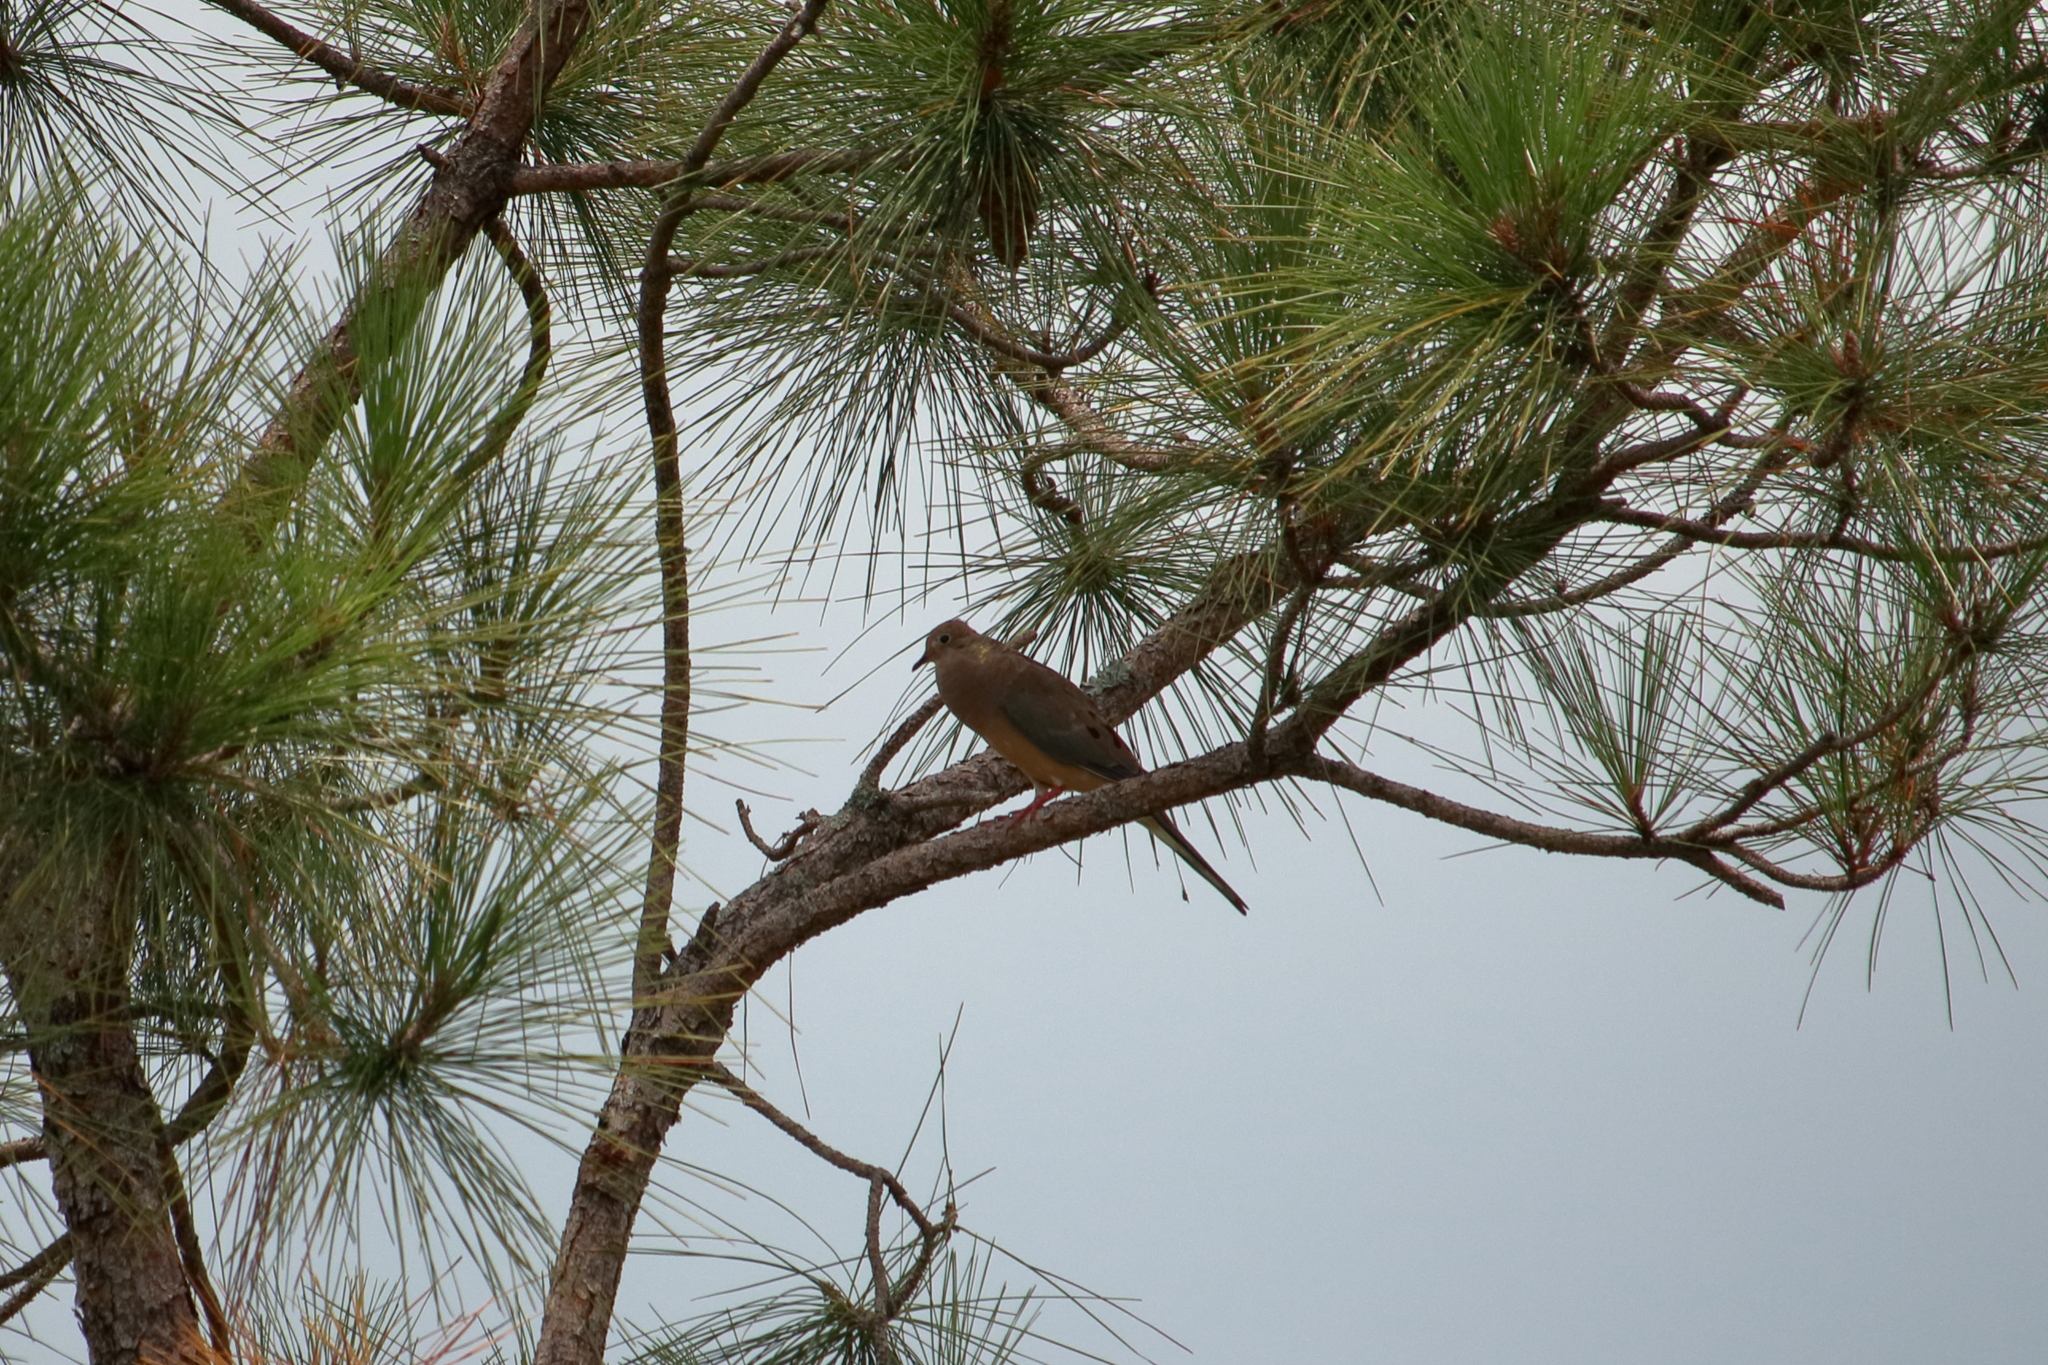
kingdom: Animalia
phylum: Chordata
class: Aves
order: Columbiformes
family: Columbidae
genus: Zenaida
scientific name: Zenaida macroura
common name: Mourning dove
